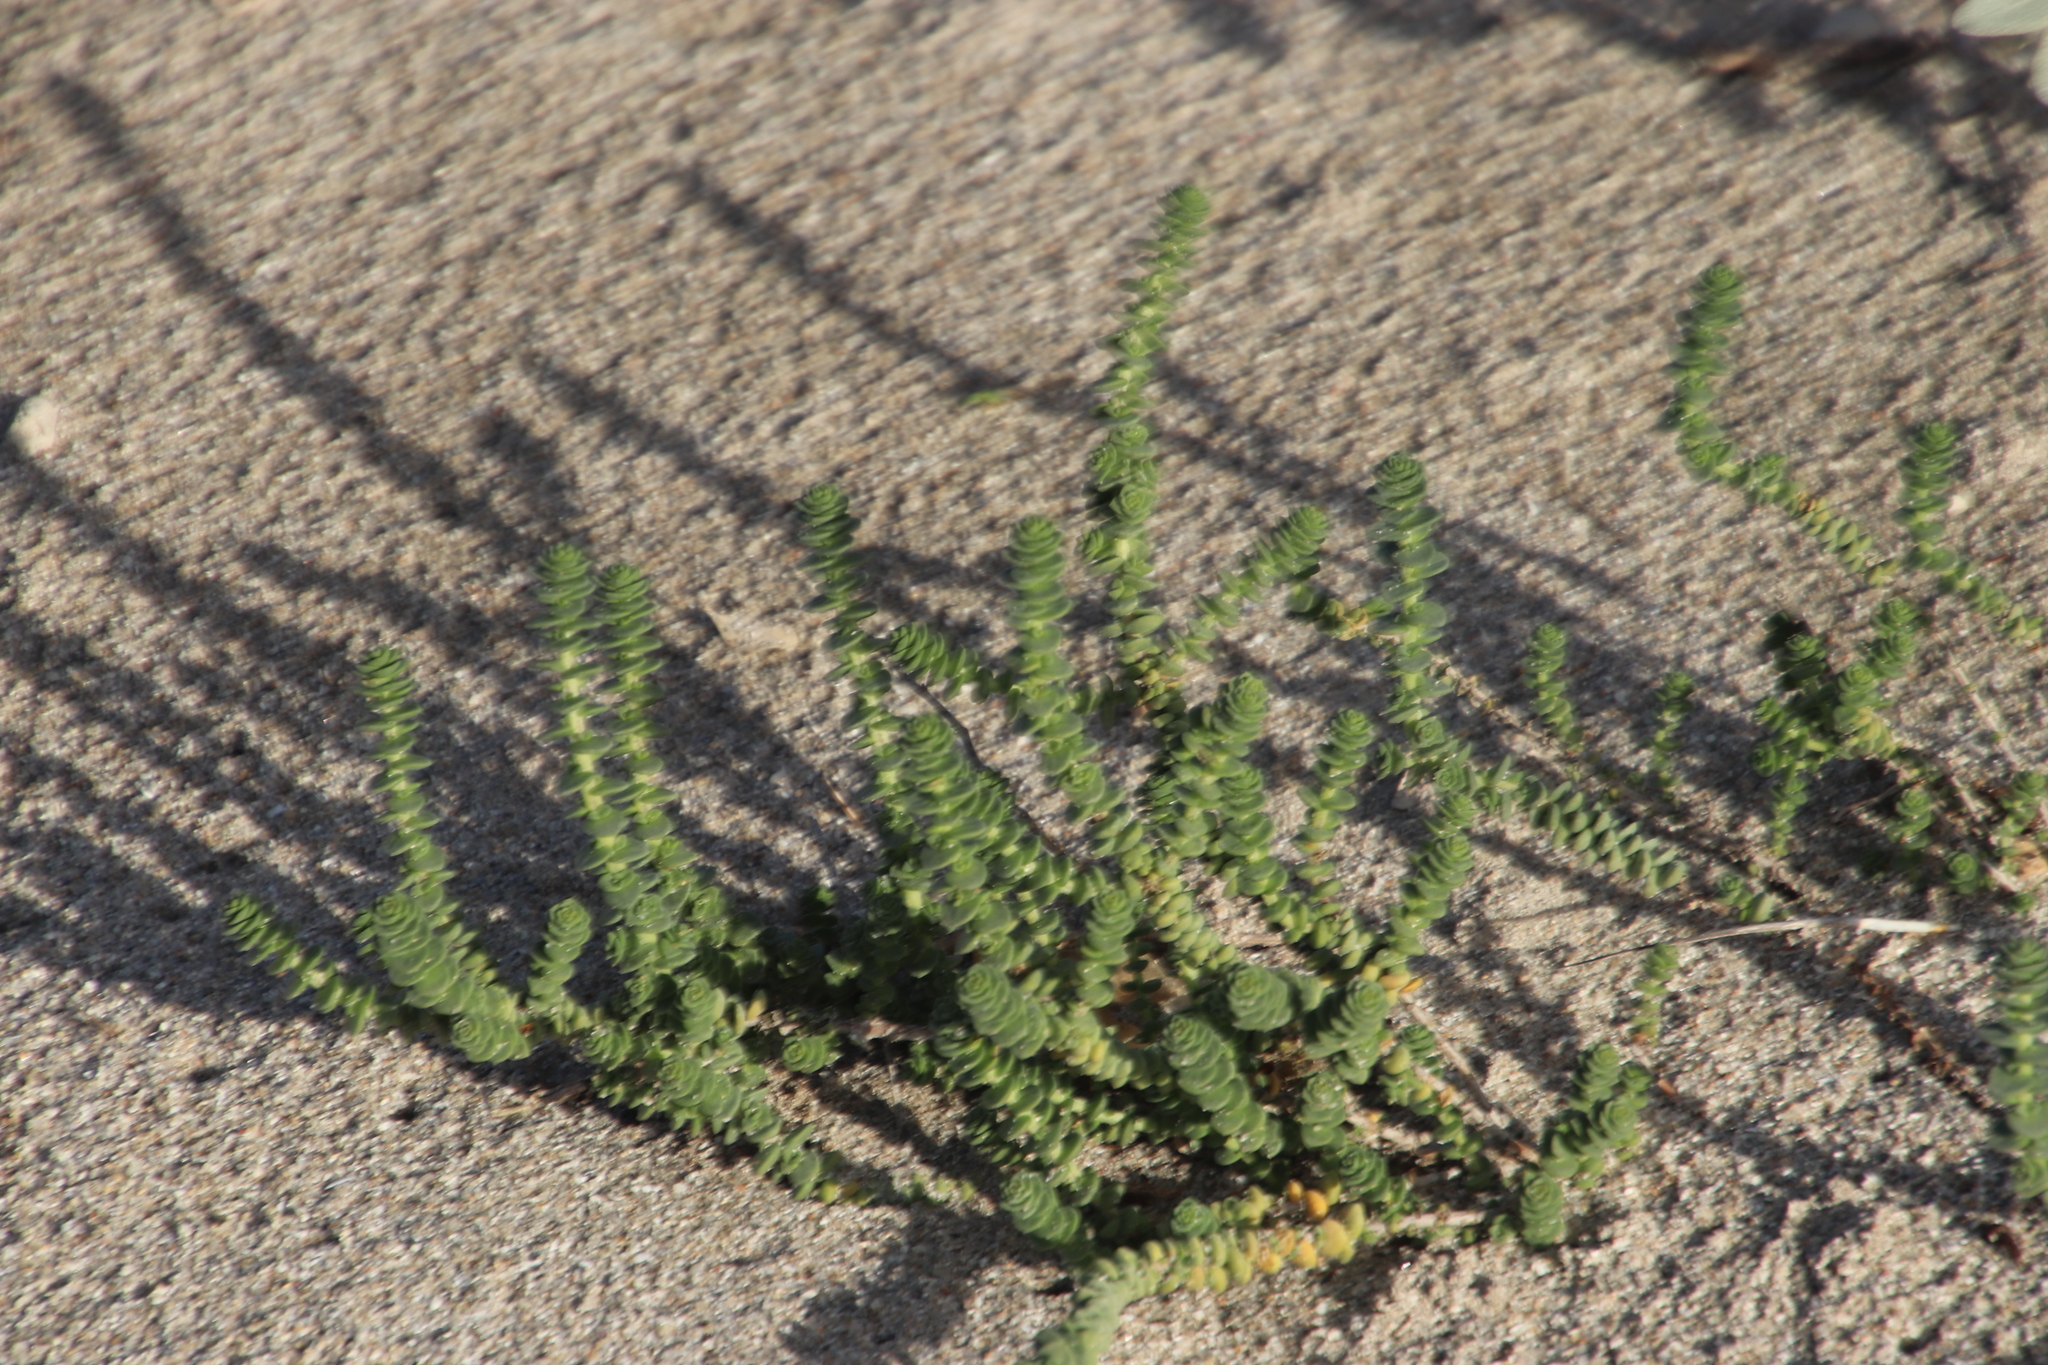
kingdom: Plantae
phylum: Tracheophyta
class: Magnoliopsida
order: Lamiales
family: Scrophulariaceae
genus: Hebenstretia
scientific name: Hebenstretia cordata
